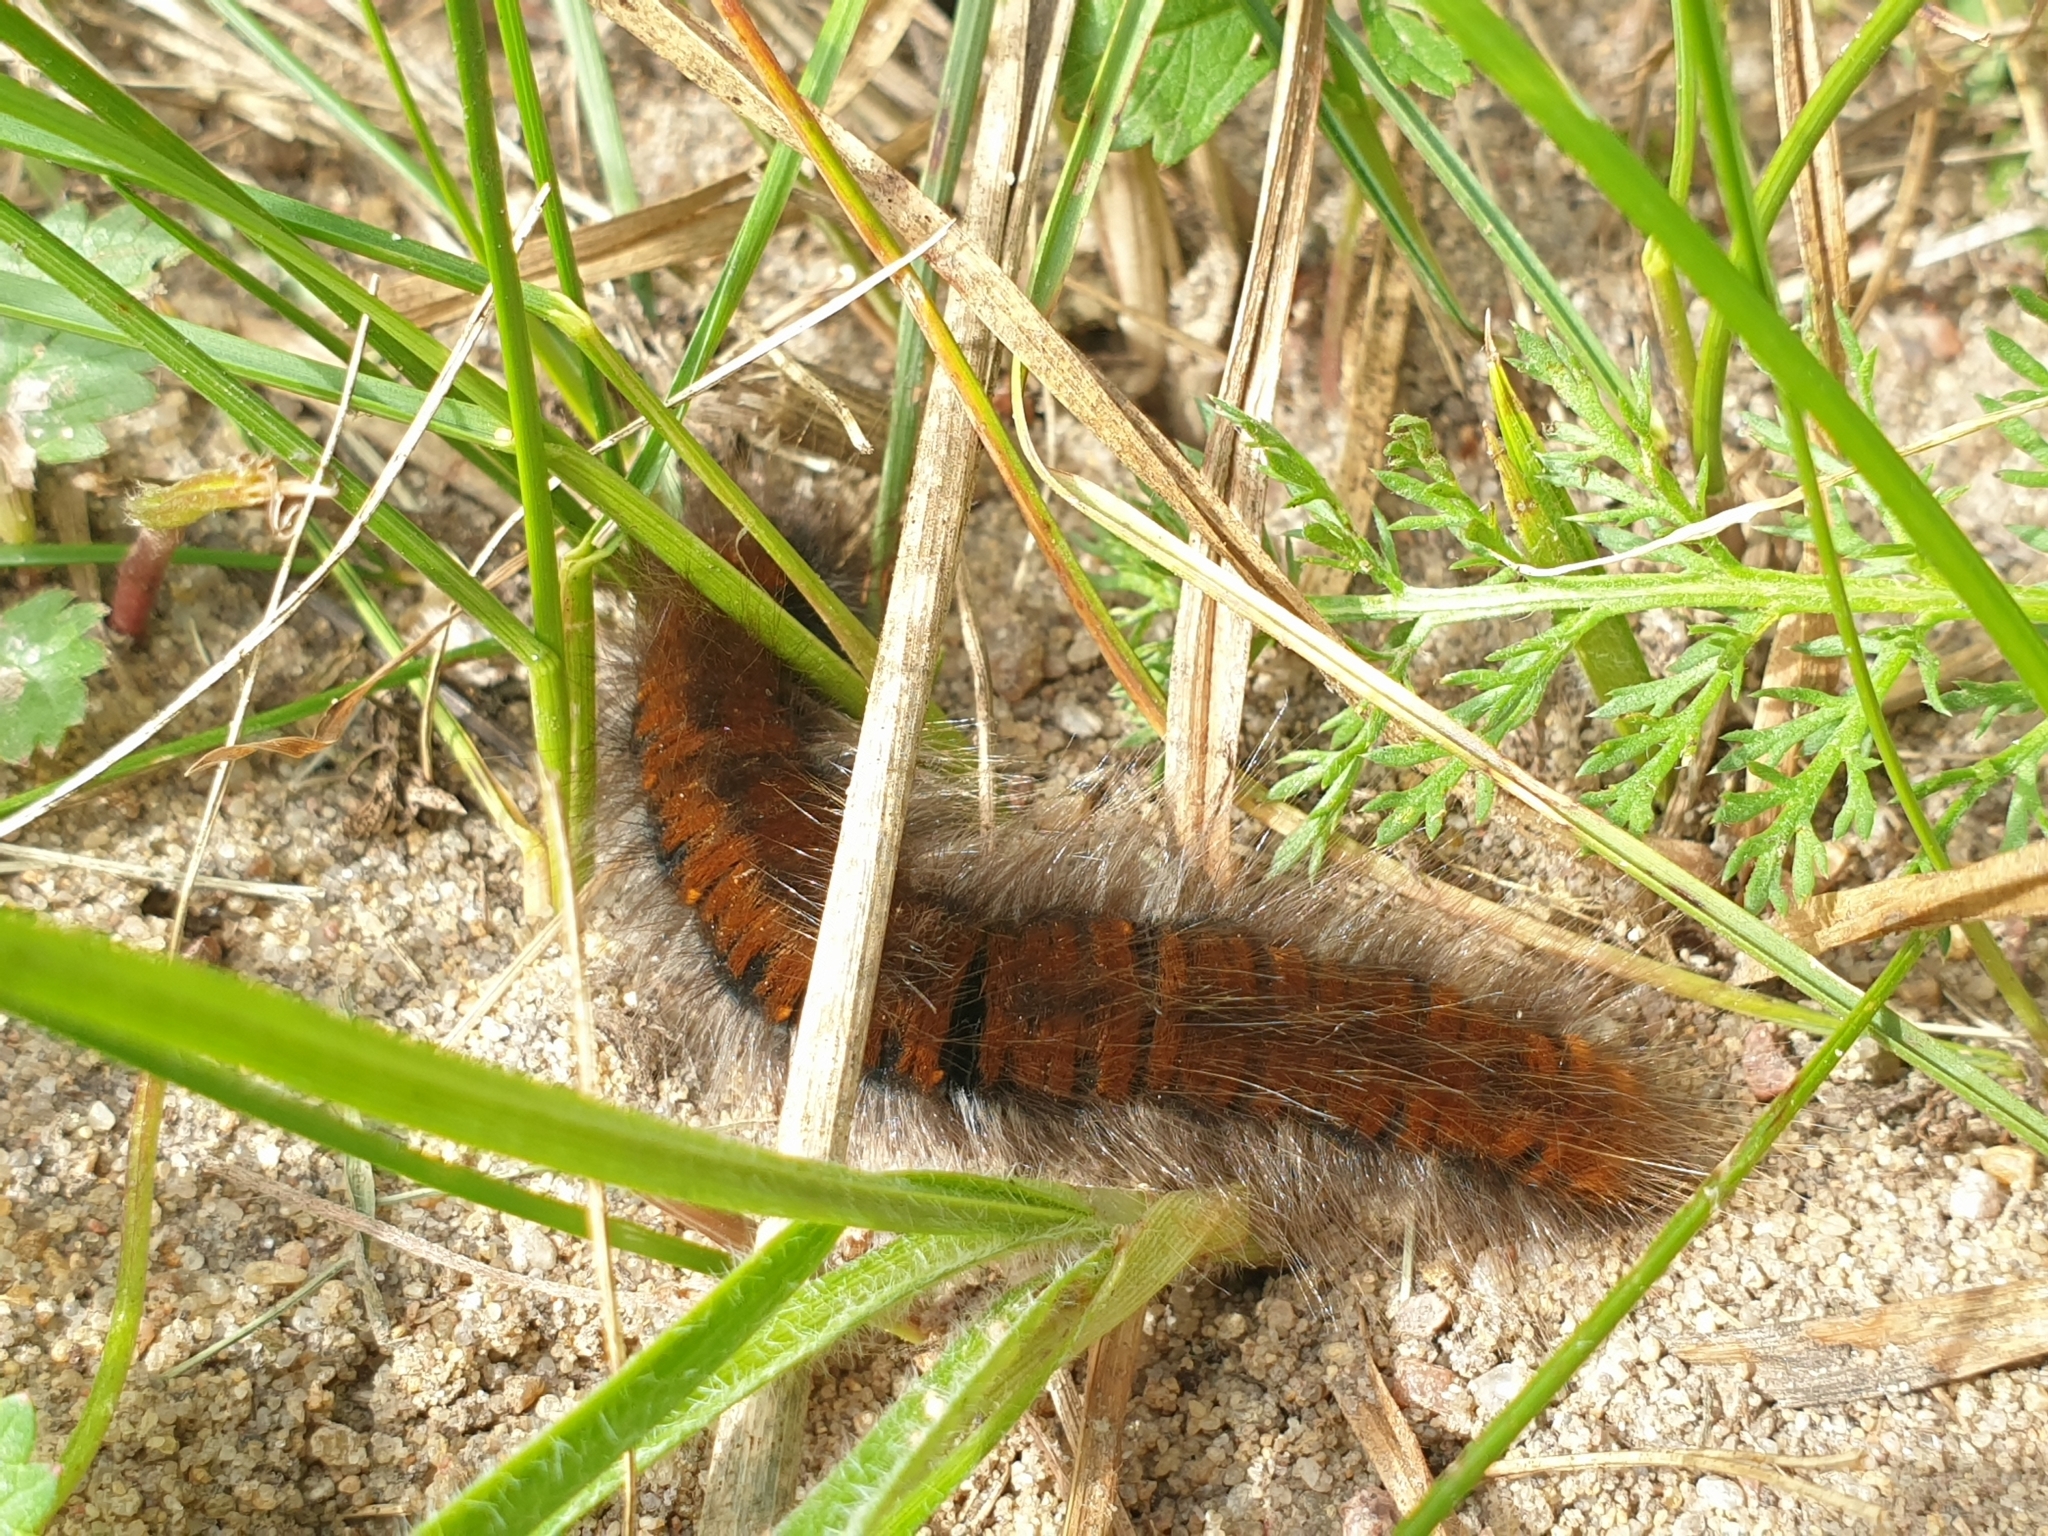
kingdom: Animalia
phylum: Arthropoda
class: Insecta
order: Lepidoptera
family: Lasiocampidae
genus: Macrothylacia
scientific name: Macrothylacia rubi
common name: Fox moth
